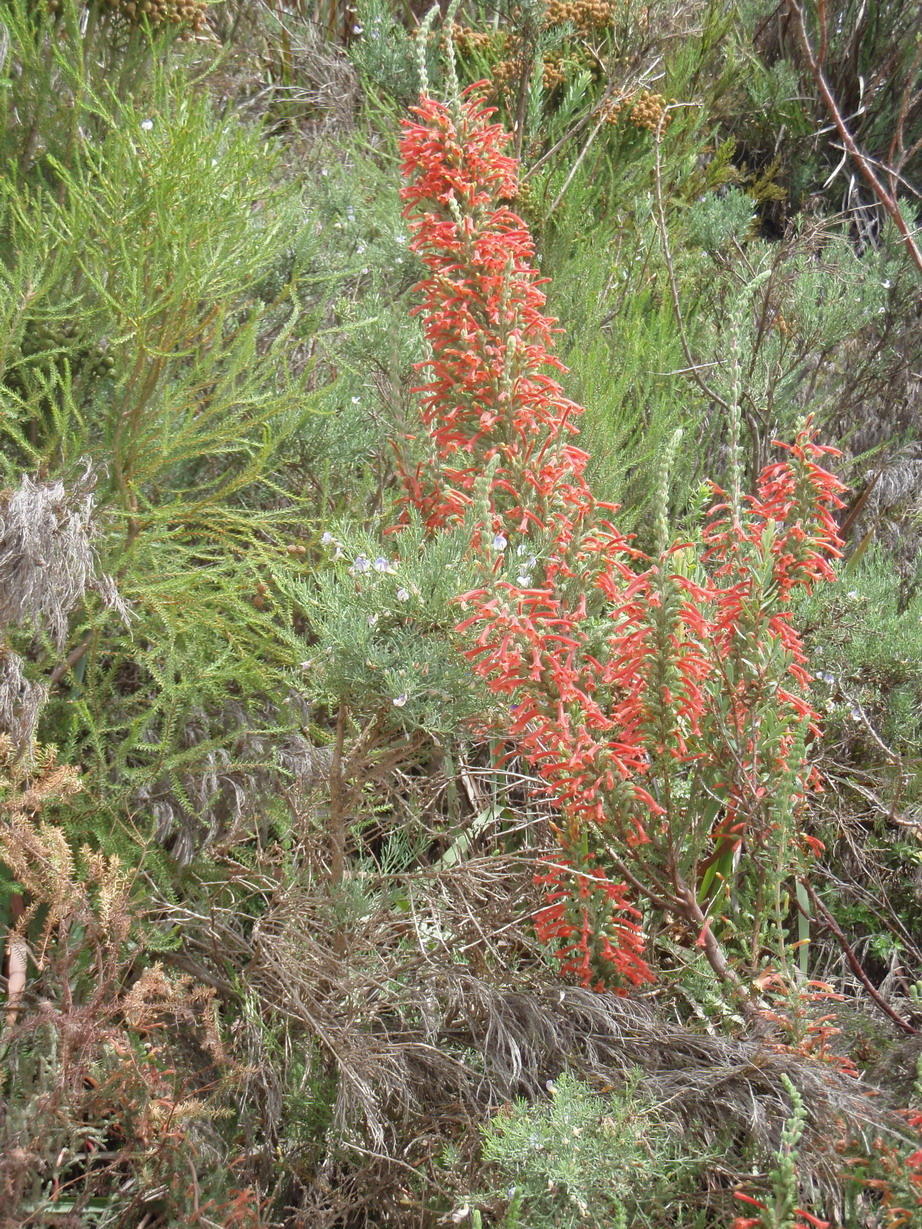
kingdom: Plantae
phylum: Tracheophyta
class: Magnoliopsida
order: Ericales
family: Ericaceae
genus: Erica
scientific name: Erica curviflora
